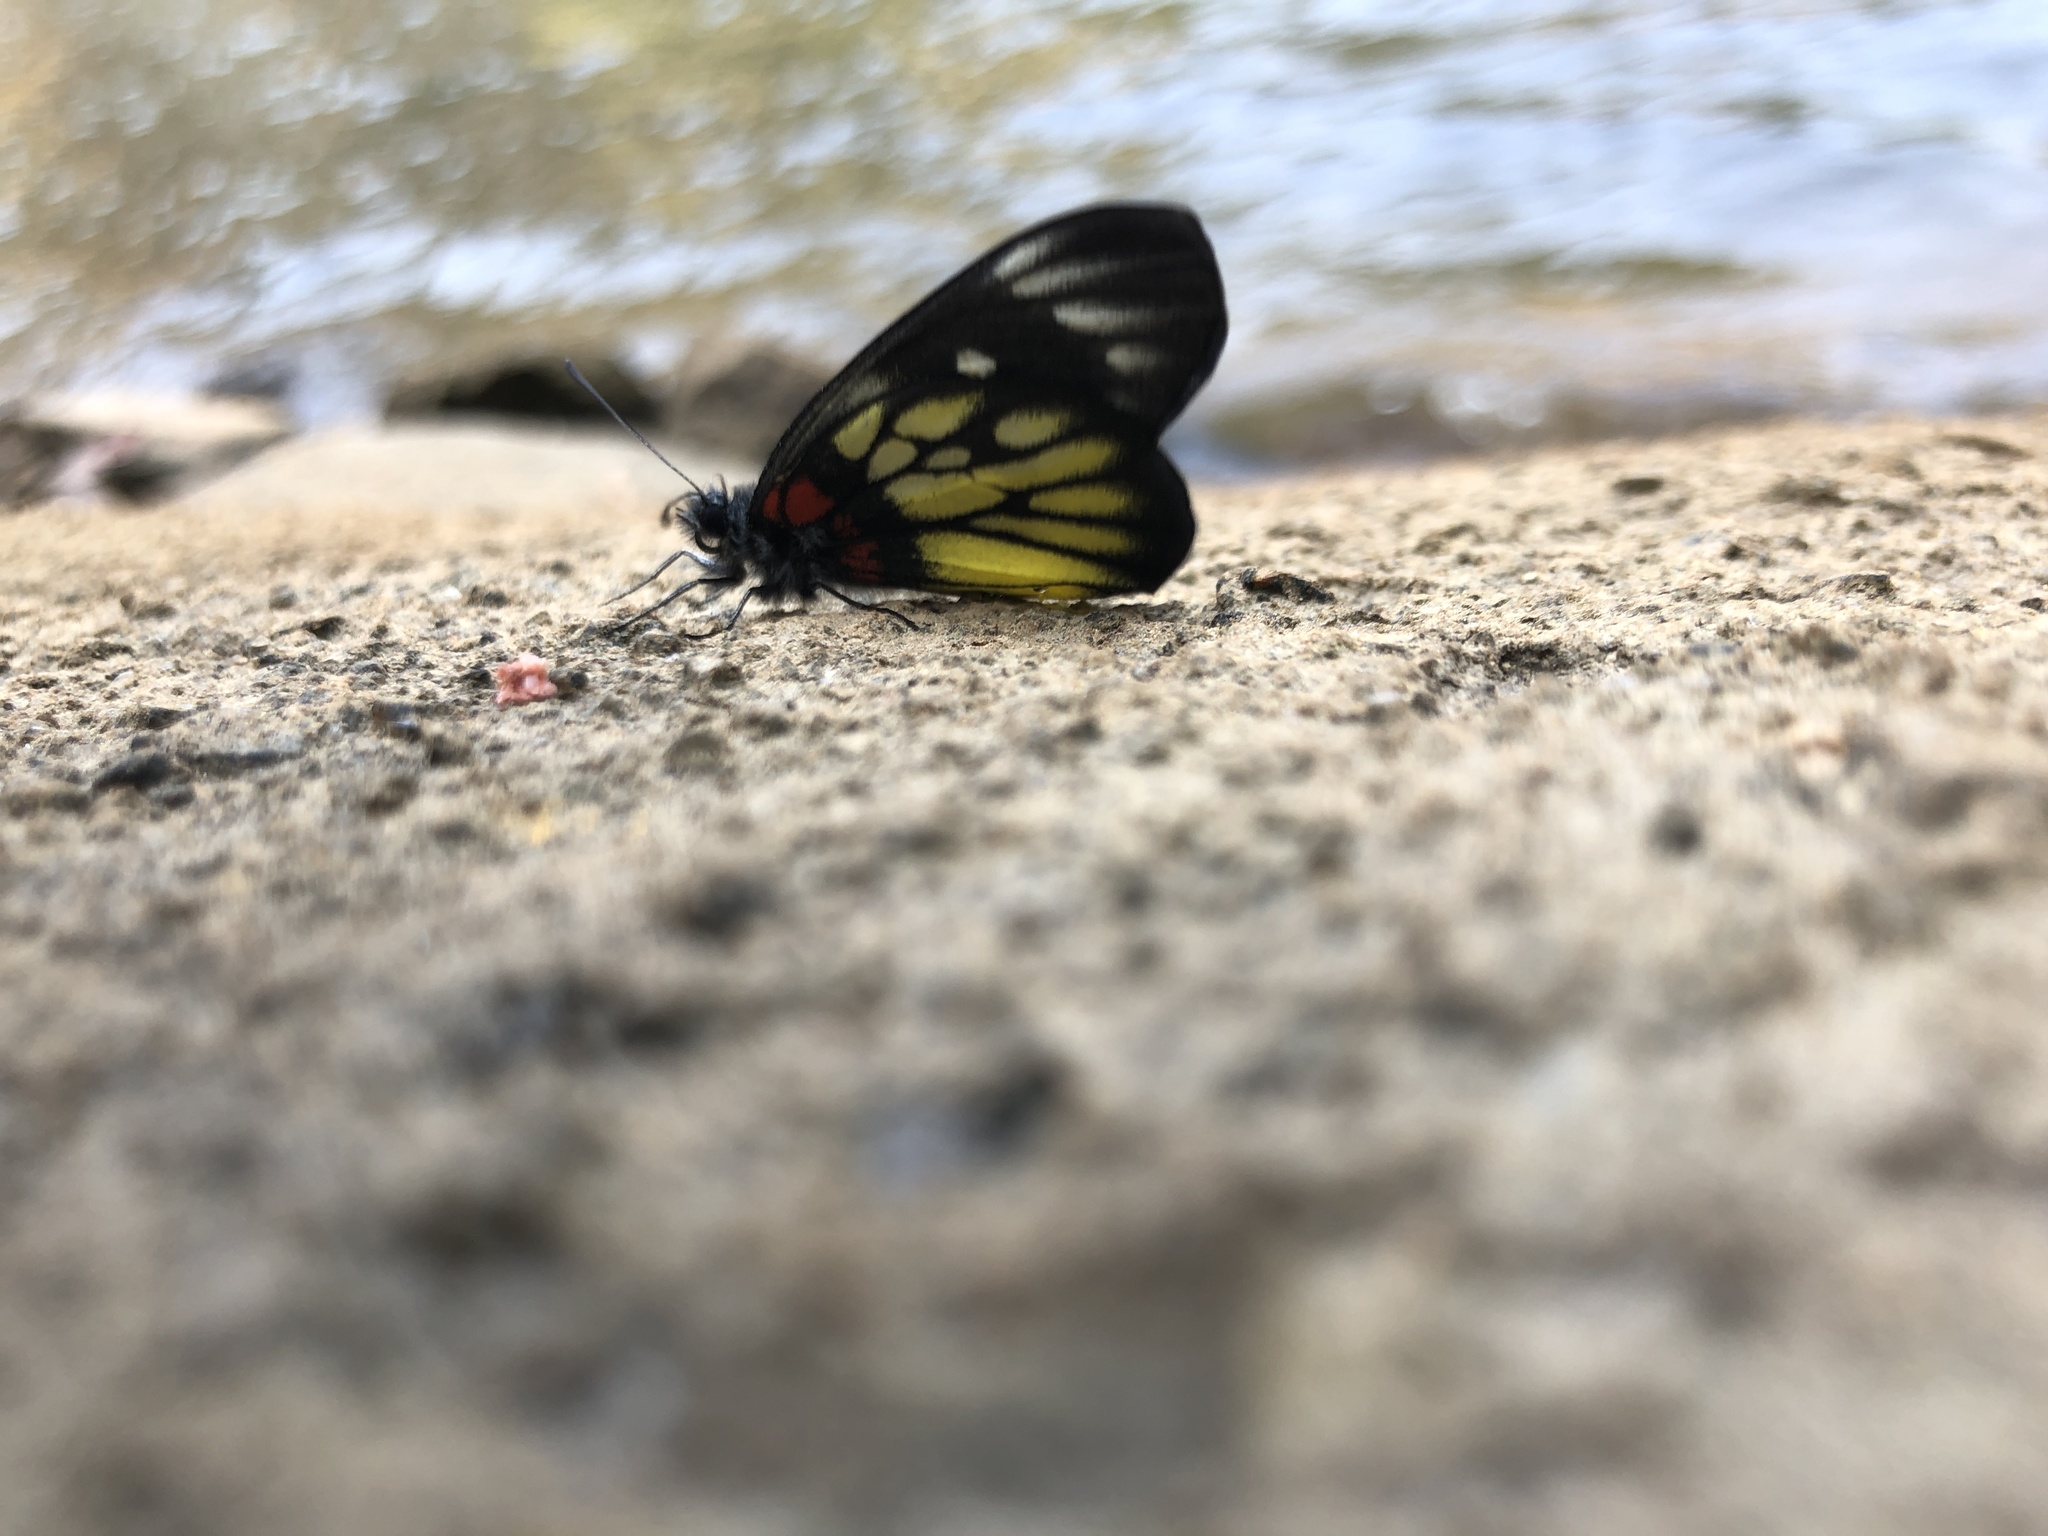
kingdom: Animalia
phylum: Arthropoda
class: Insecta
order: Lepidoptera
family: Pieridae
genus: Delias
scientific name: Delias pasithoe
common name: Red-base jezebel
